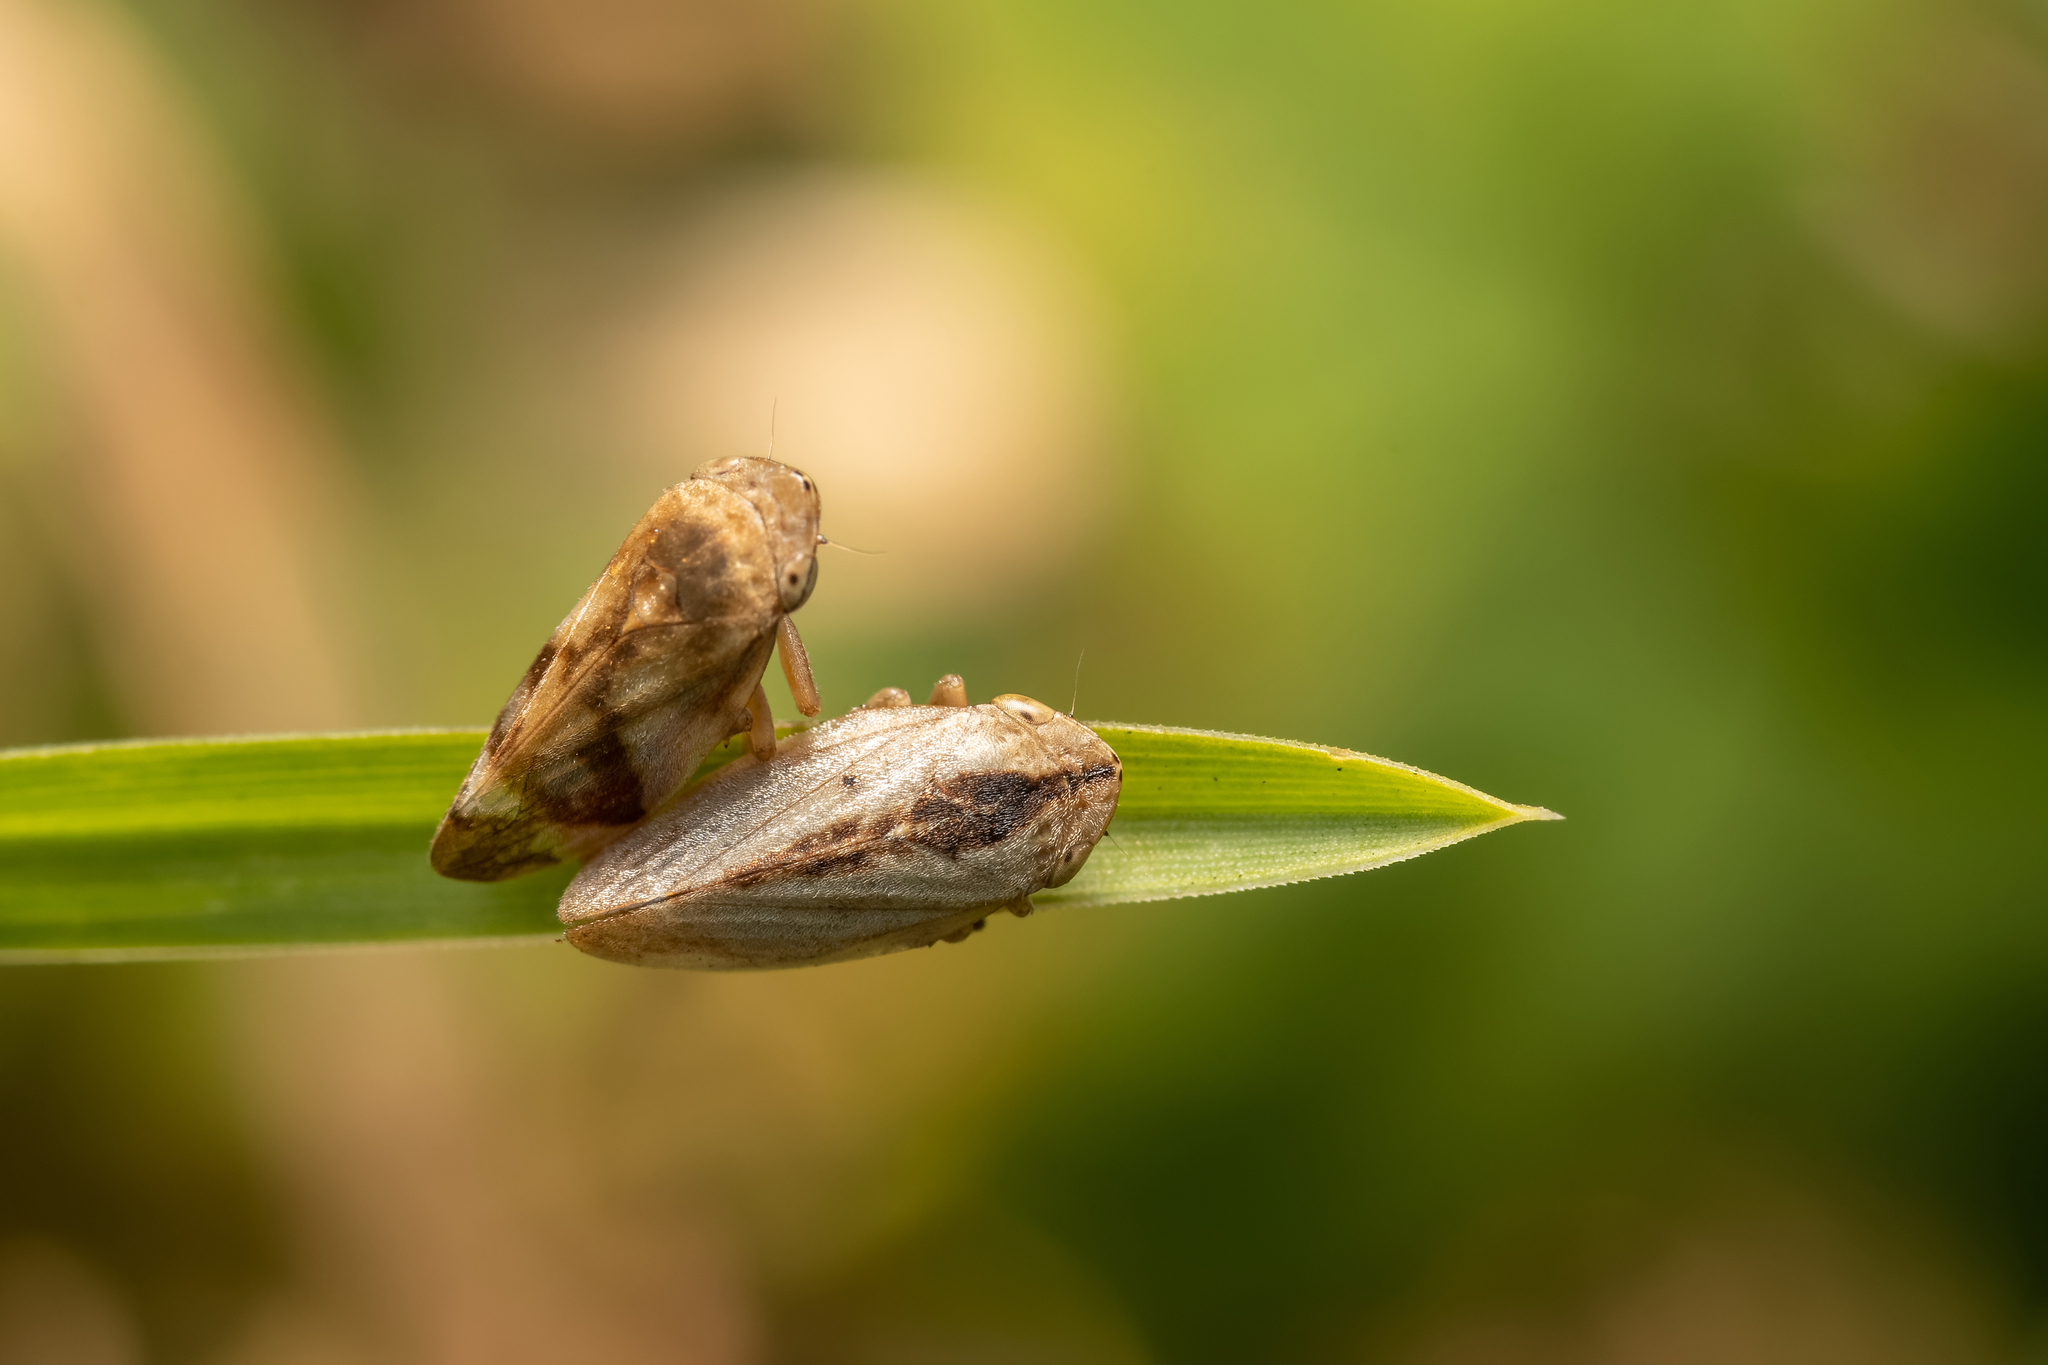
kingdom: Animalia
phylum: Arthropoda
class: Insecta
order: Hemiptera
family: Aphrophoridae
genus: Philaenus
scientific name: Philaenus spumarius
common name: Meadow spittlebug
